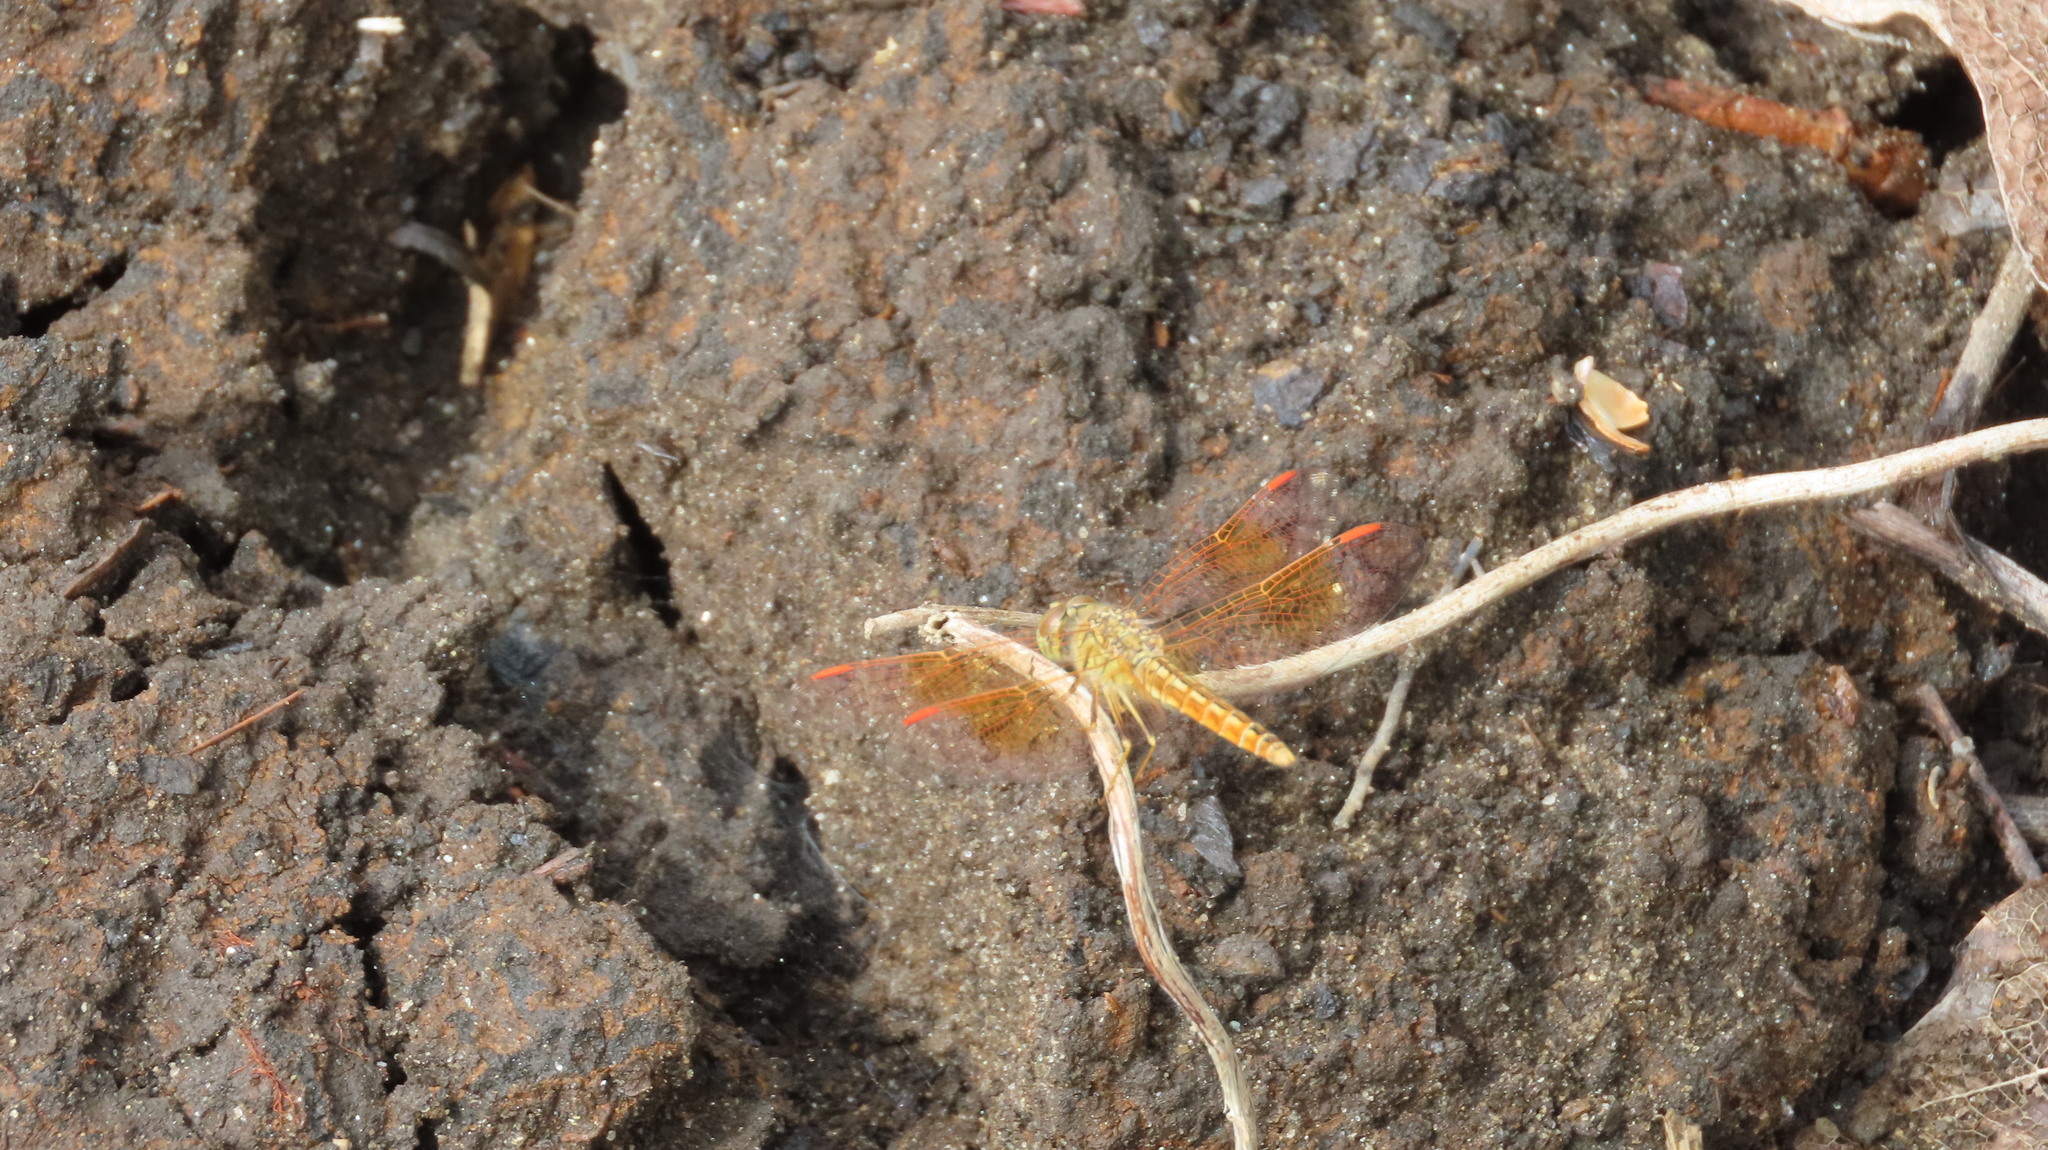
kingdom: Animalia
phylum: Arthropoda
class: Insecta
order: Odonata
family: Libellulidae
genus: Brachythemis
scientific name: Brachythemis contaminata
